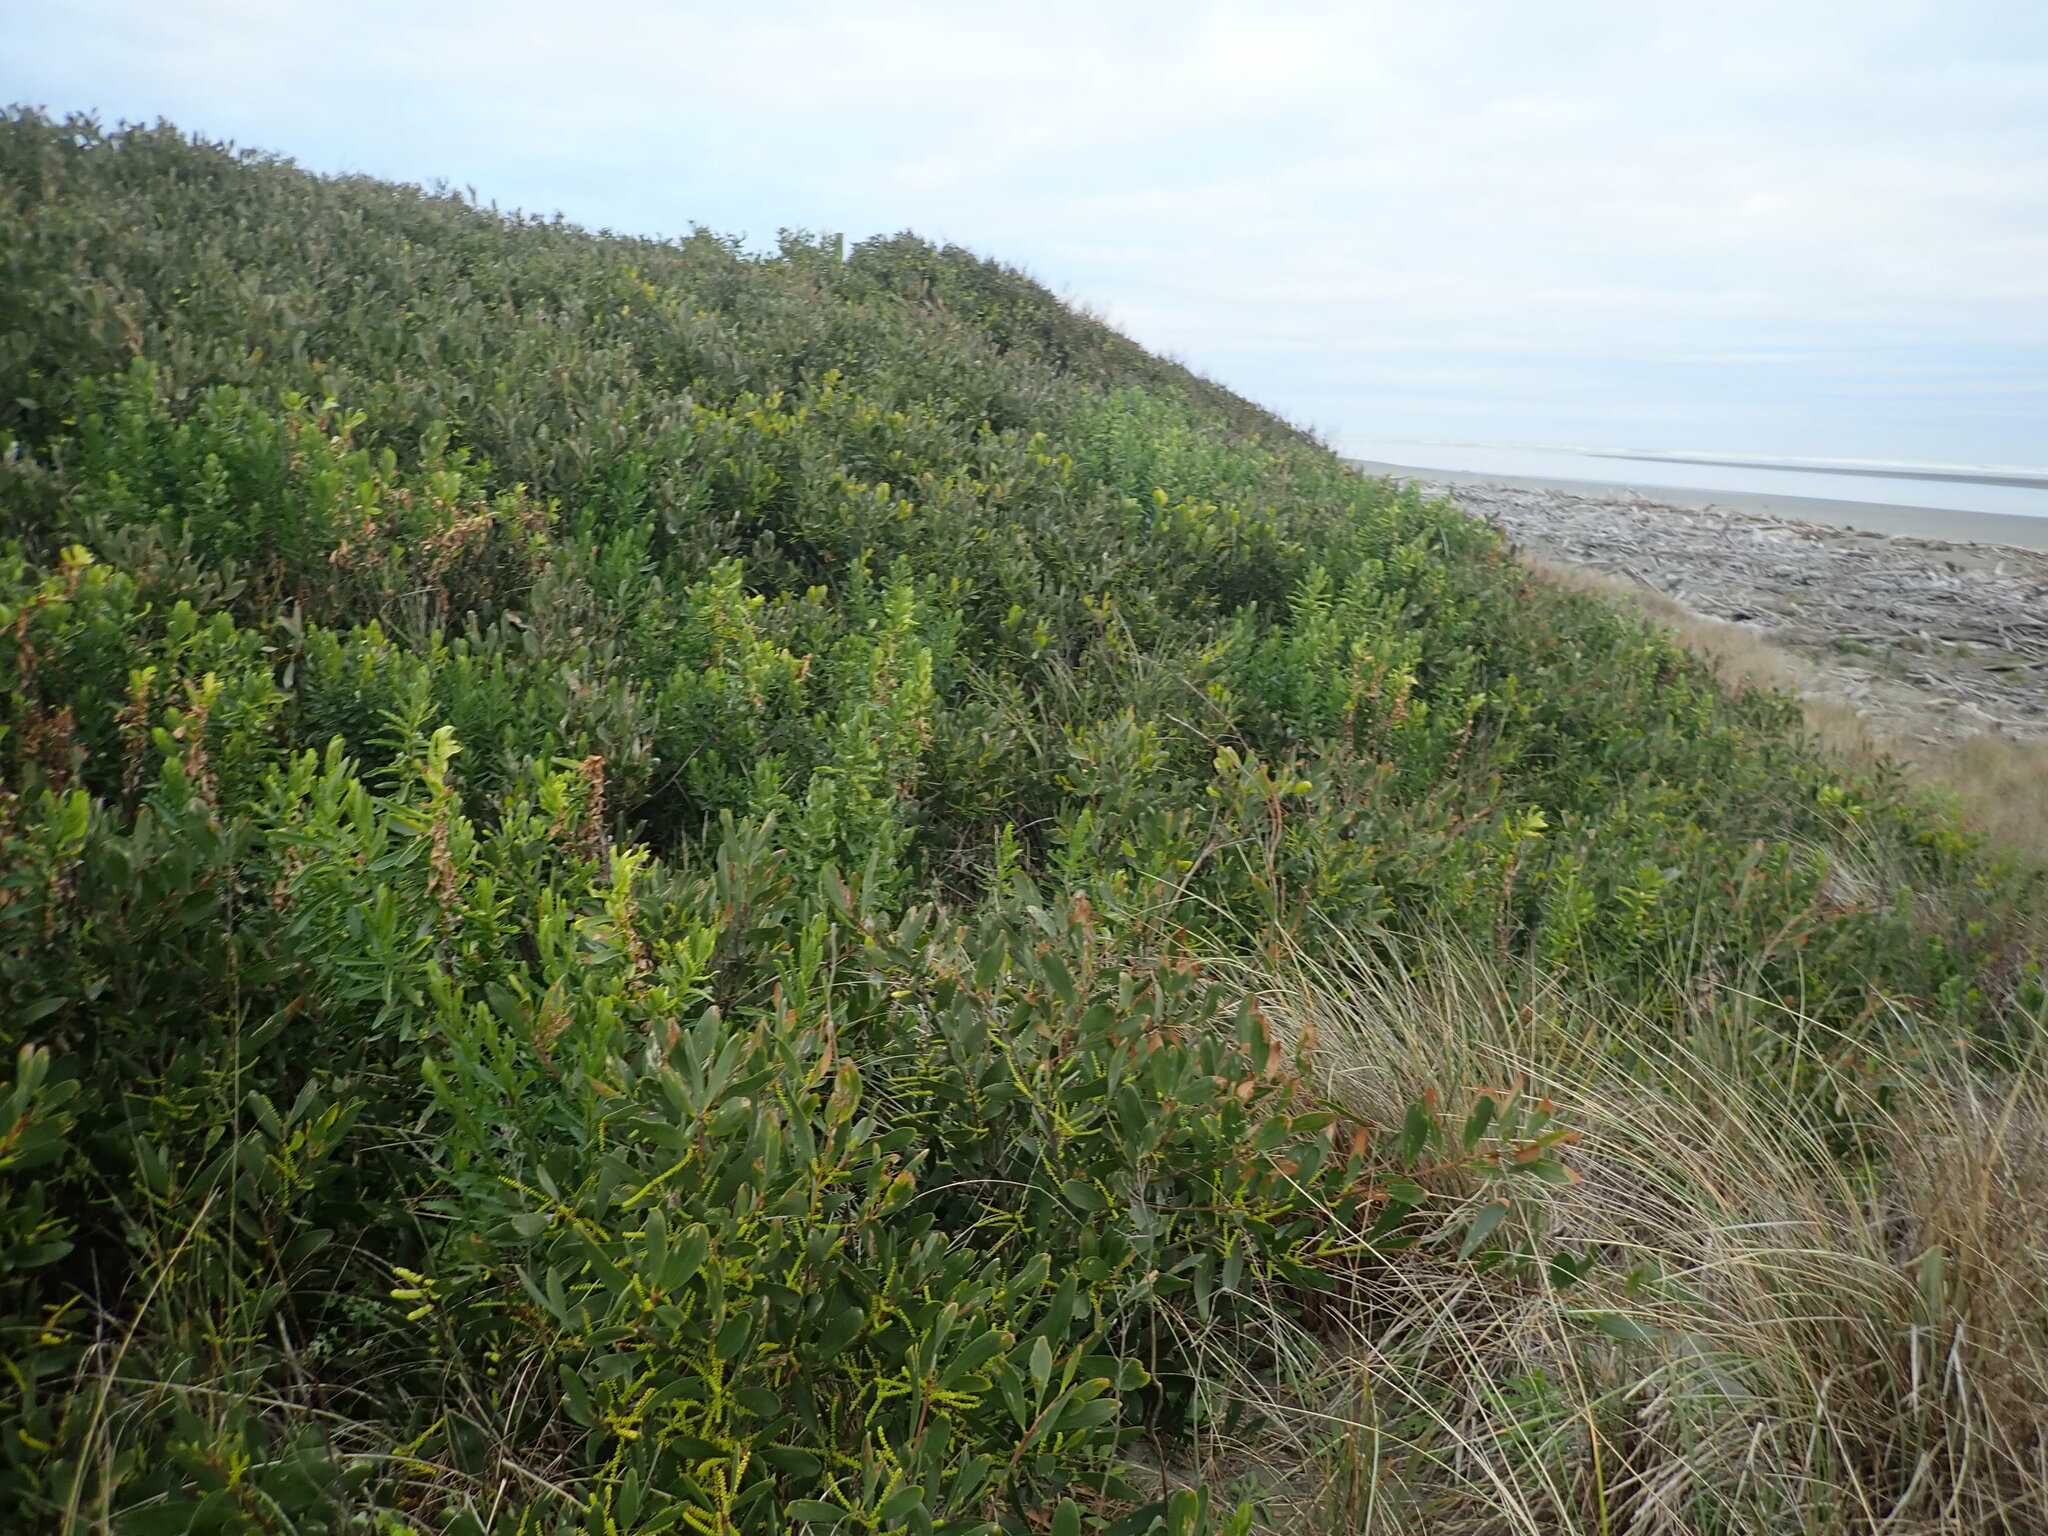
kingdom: Plantae
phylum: Tracheophyta
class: Magnoliopsida
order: Asterales
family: Asteraceae
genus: Senecio
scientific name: Senecio glastifolius
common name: Woad-leaved ragwort
